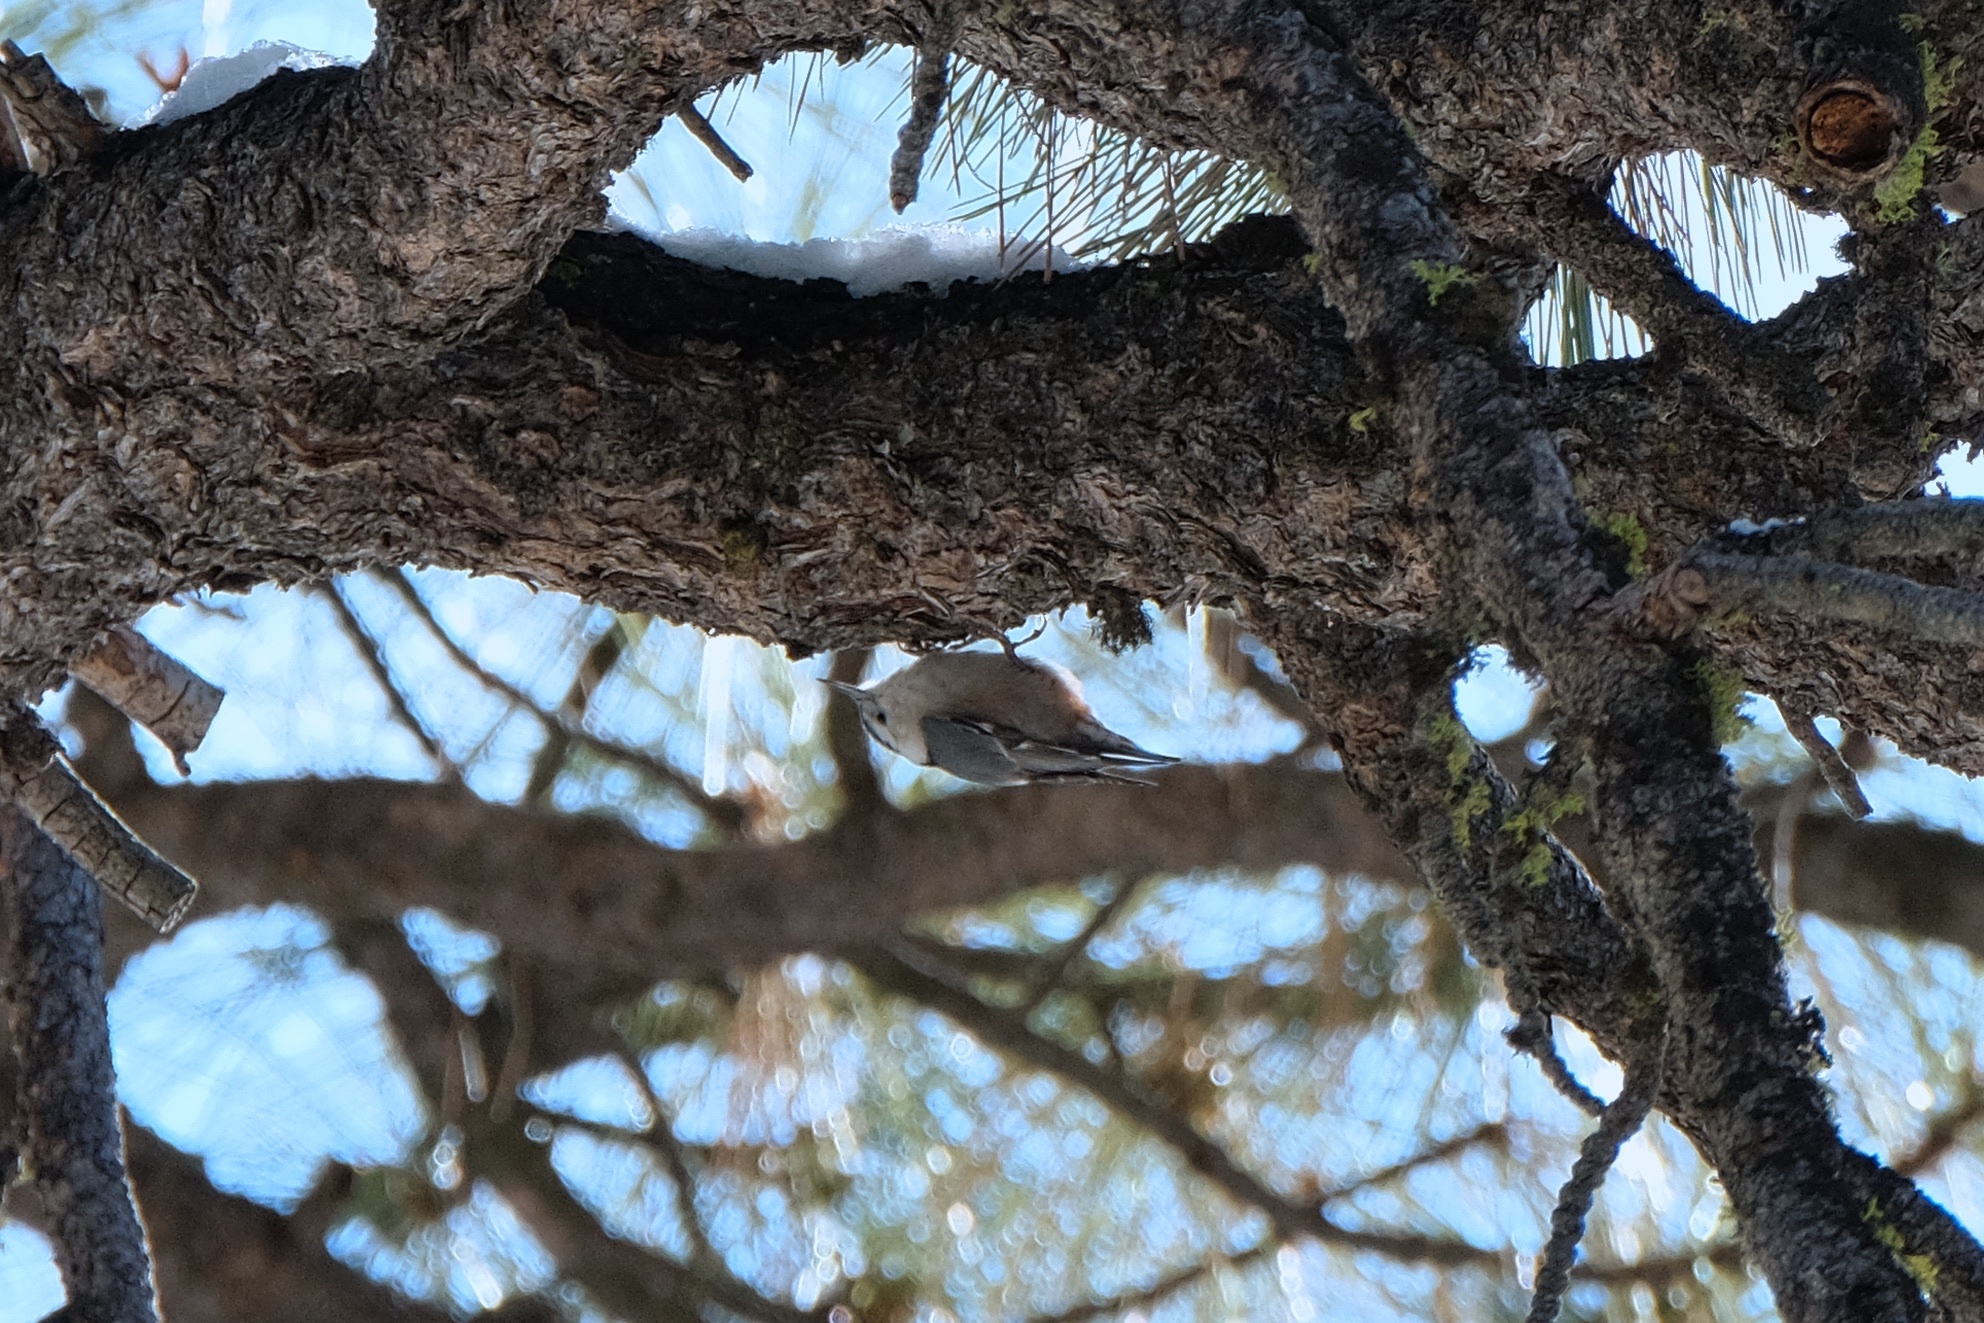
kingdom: Animalia
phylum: Chordata
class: Aves
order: Passeriformes
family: Sittidae
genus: Sitta
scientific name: Sitta carolinensis
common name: White-breasted nuthatch
